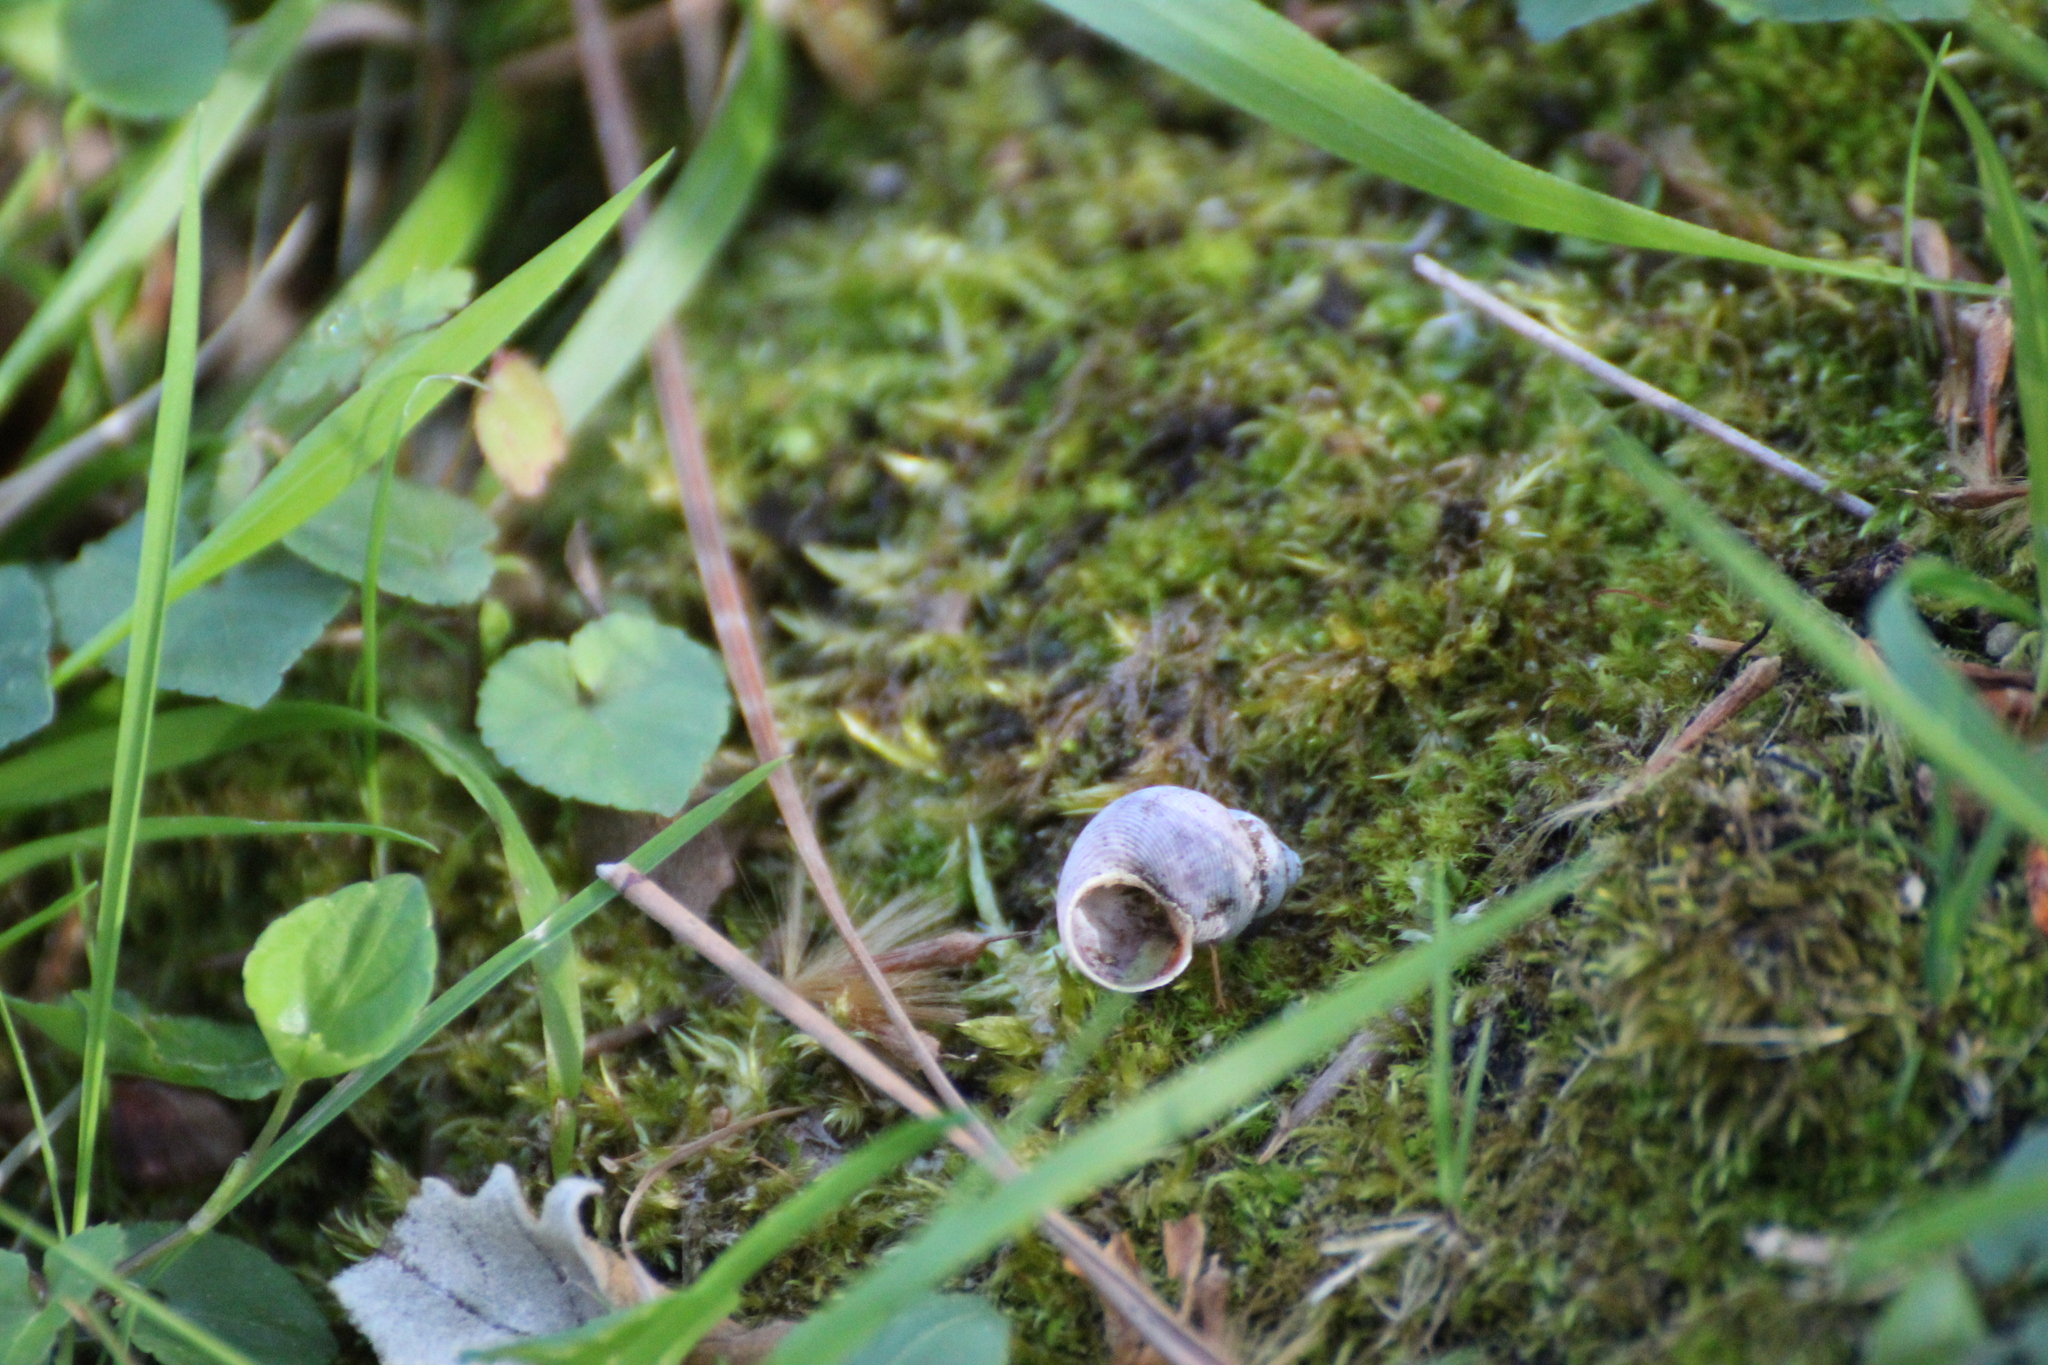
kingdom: Animalia
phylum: Mollusca
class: Gastropoda
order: Littorinimorpha
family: Pomatiidae
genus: Pomatias
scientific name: Pomatias elegans
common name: Red-mouthed snail
